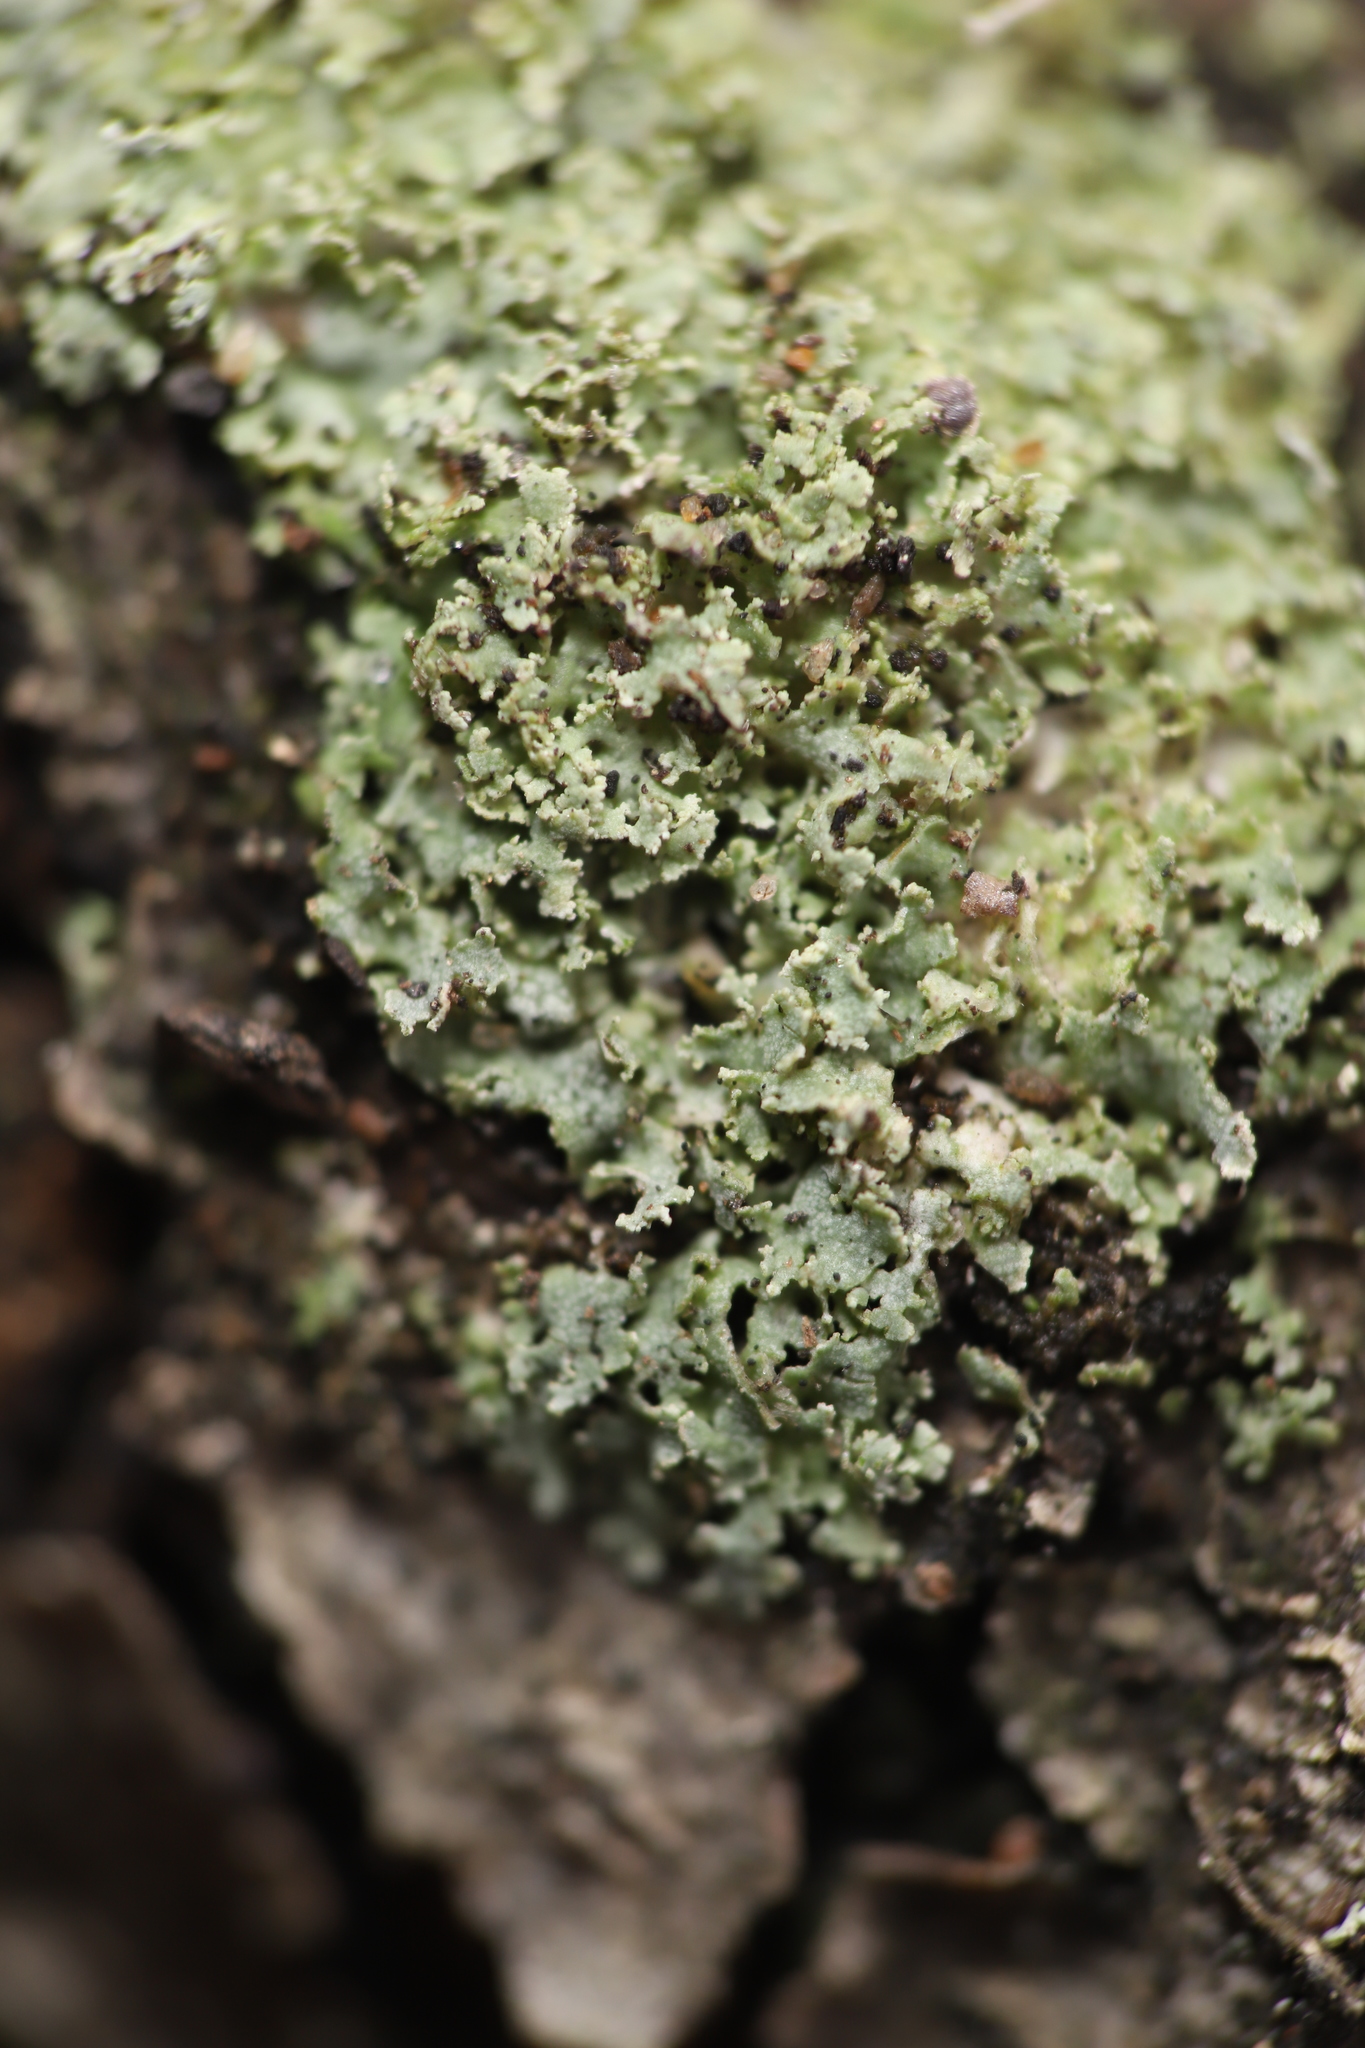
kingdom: Fungi
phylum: Ascomycota
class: Lecanoromycetes
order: Caliciales
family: Physciaceae
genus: Physcia
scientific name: Physcia millegrana
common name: Rosette lichen
